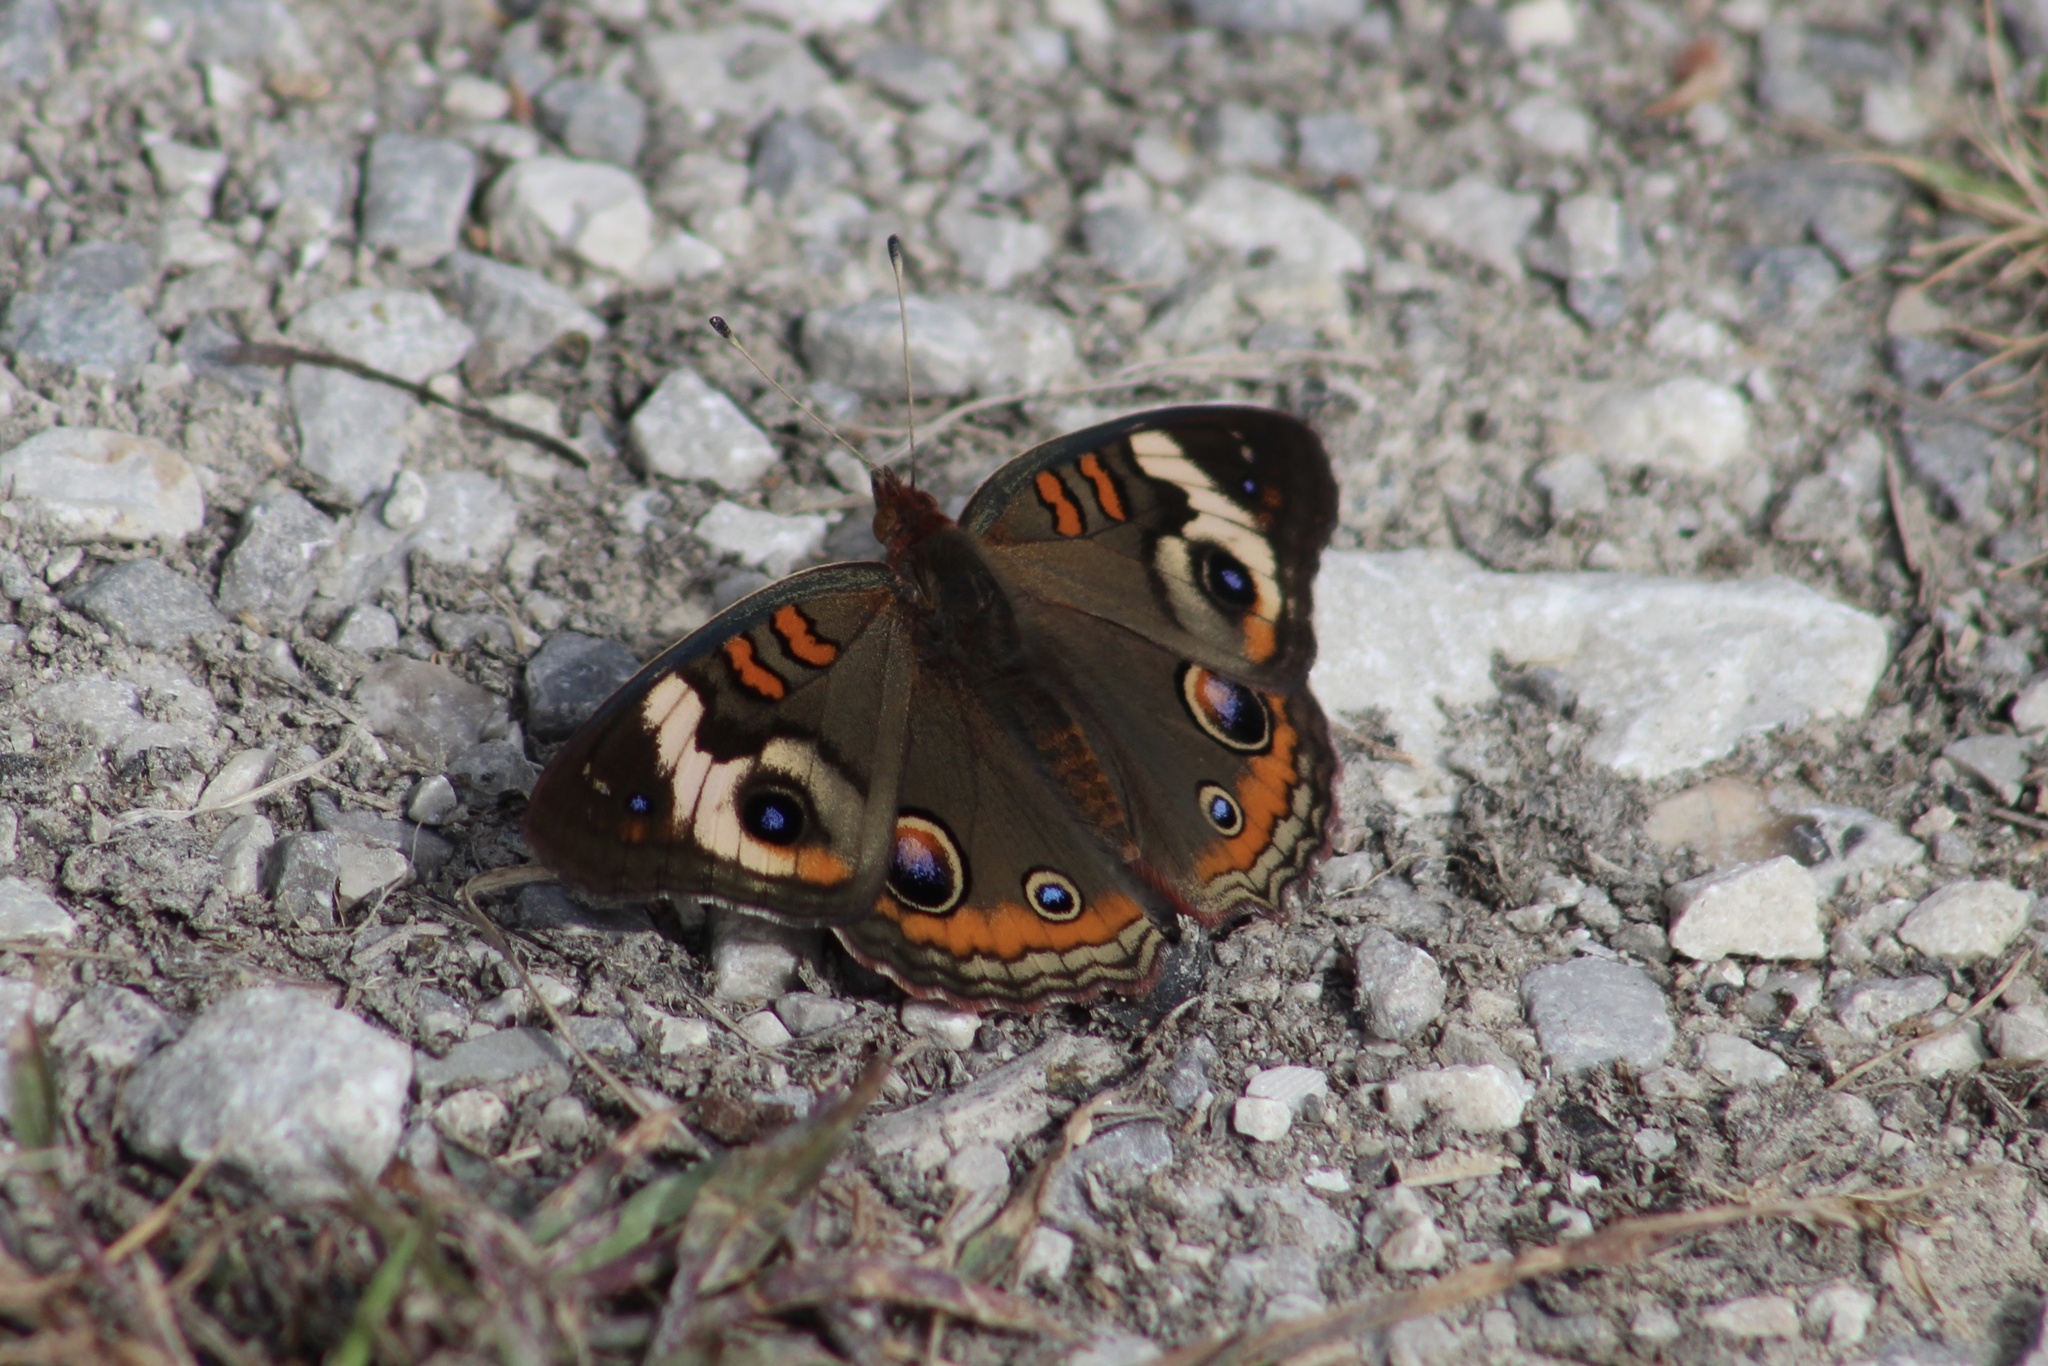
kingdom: Animalia
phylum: Arthropoda
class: Insecta
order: Lepidoptera
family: Nymphalidae
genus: Junonia
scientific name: Junonia coenia
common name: Common buckeye
